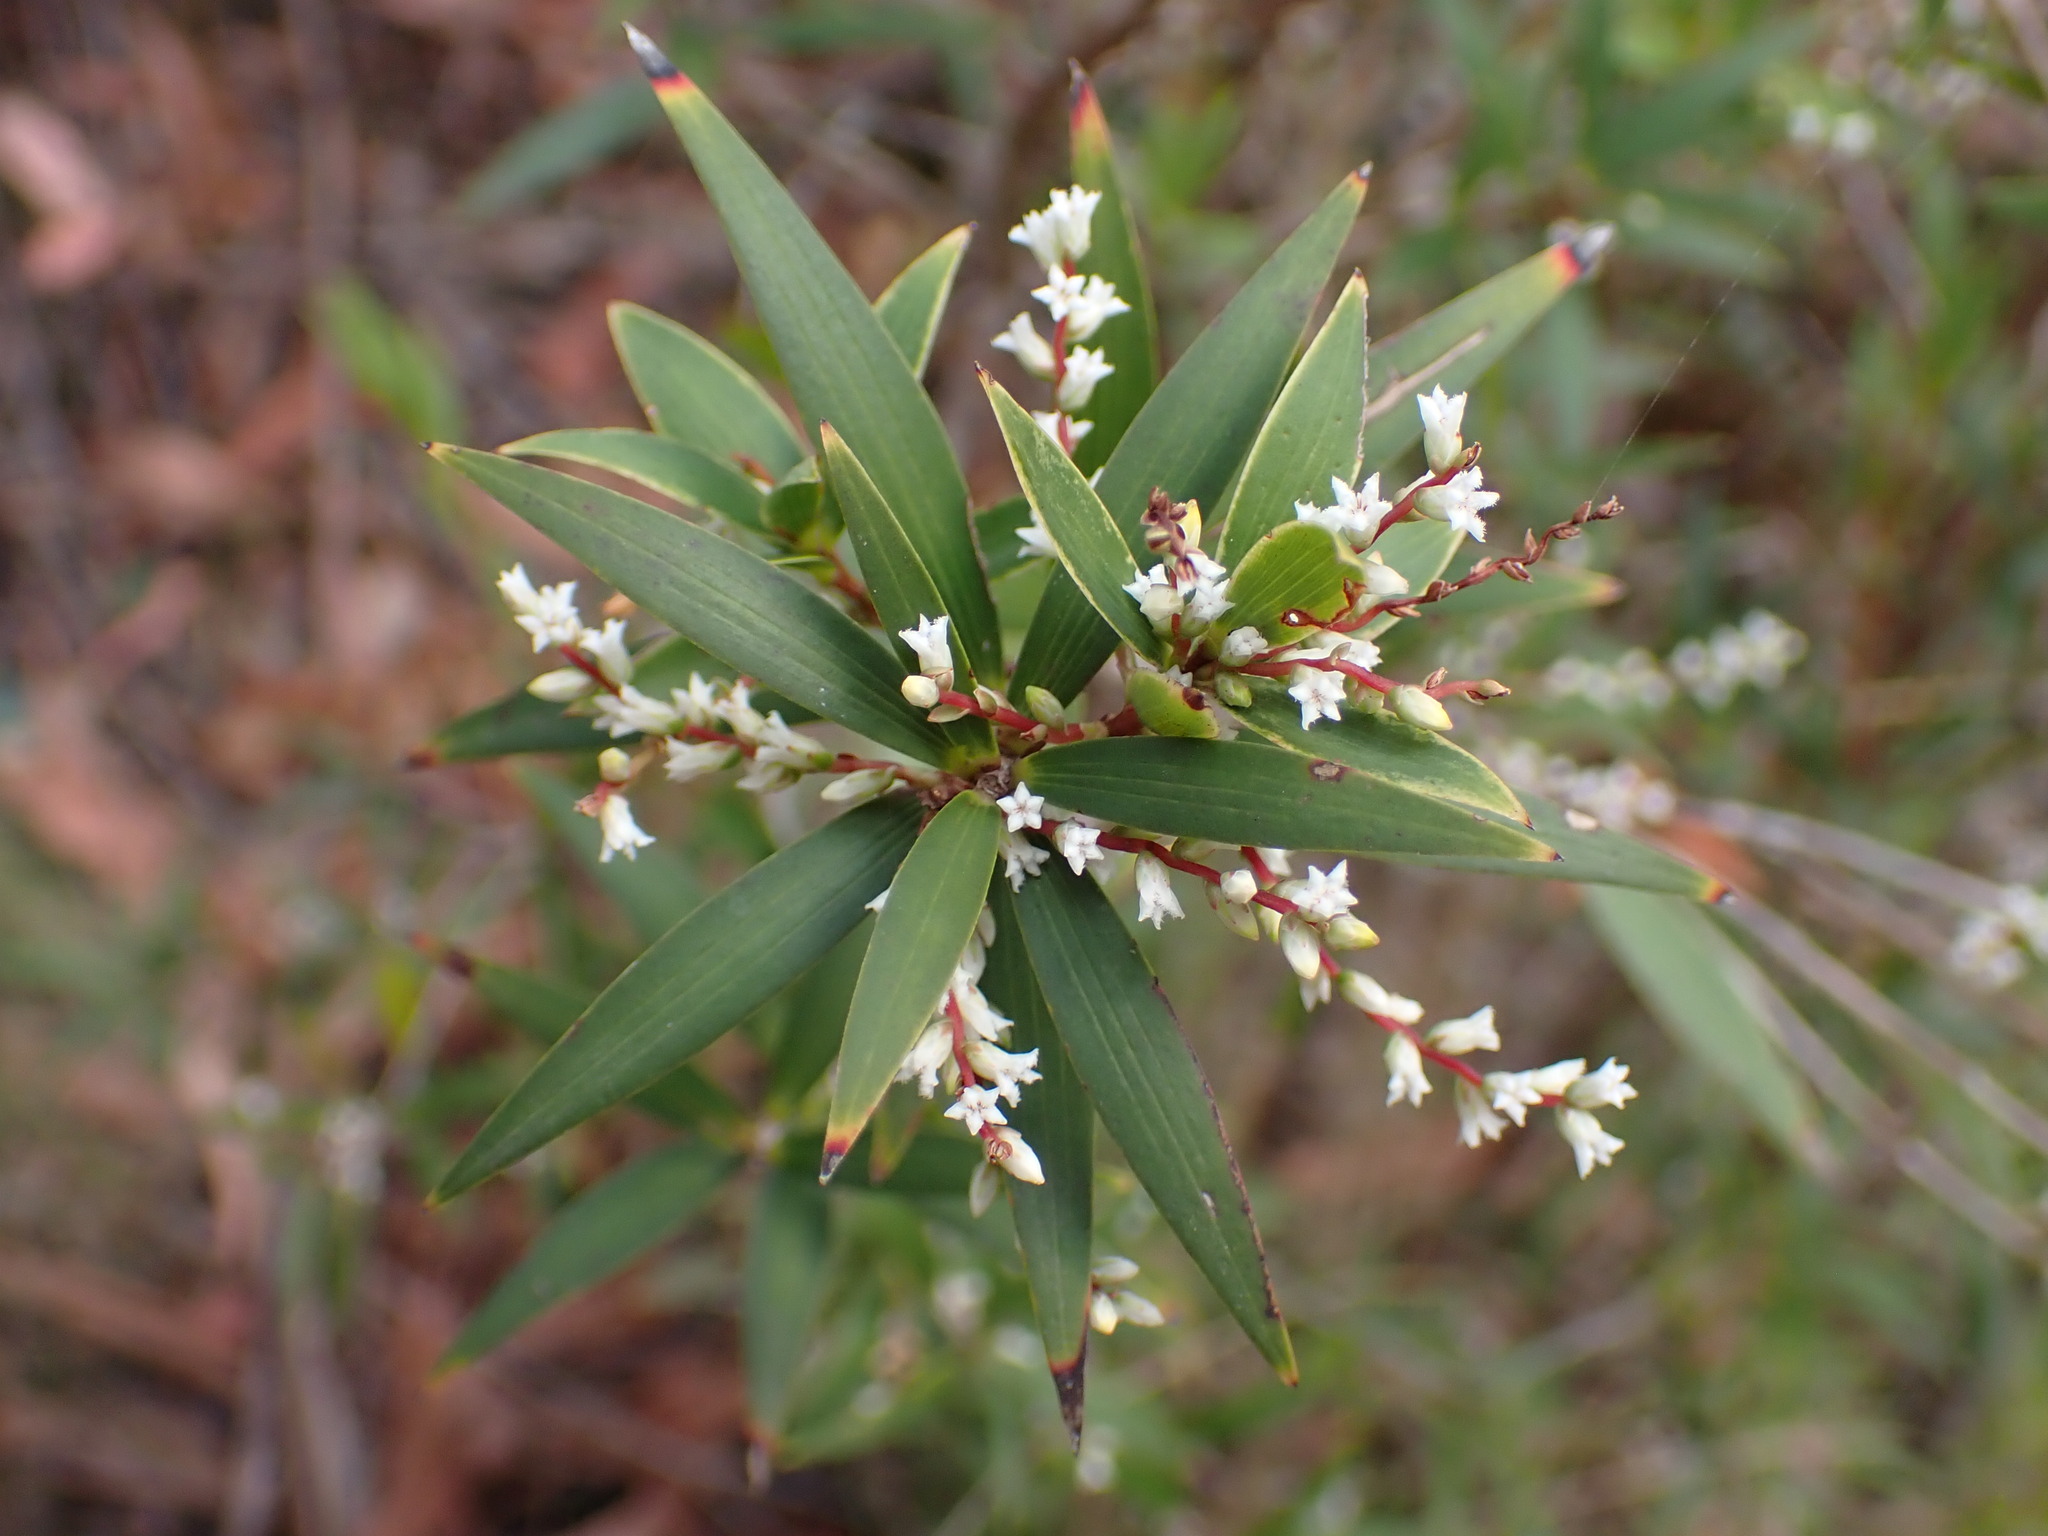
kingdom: Plantae
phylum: Tracheophyta
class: Magnoliopsida
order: Ericales
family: Ericaceae
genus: Leucopogon
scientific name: Leucopogon lanceolatus
